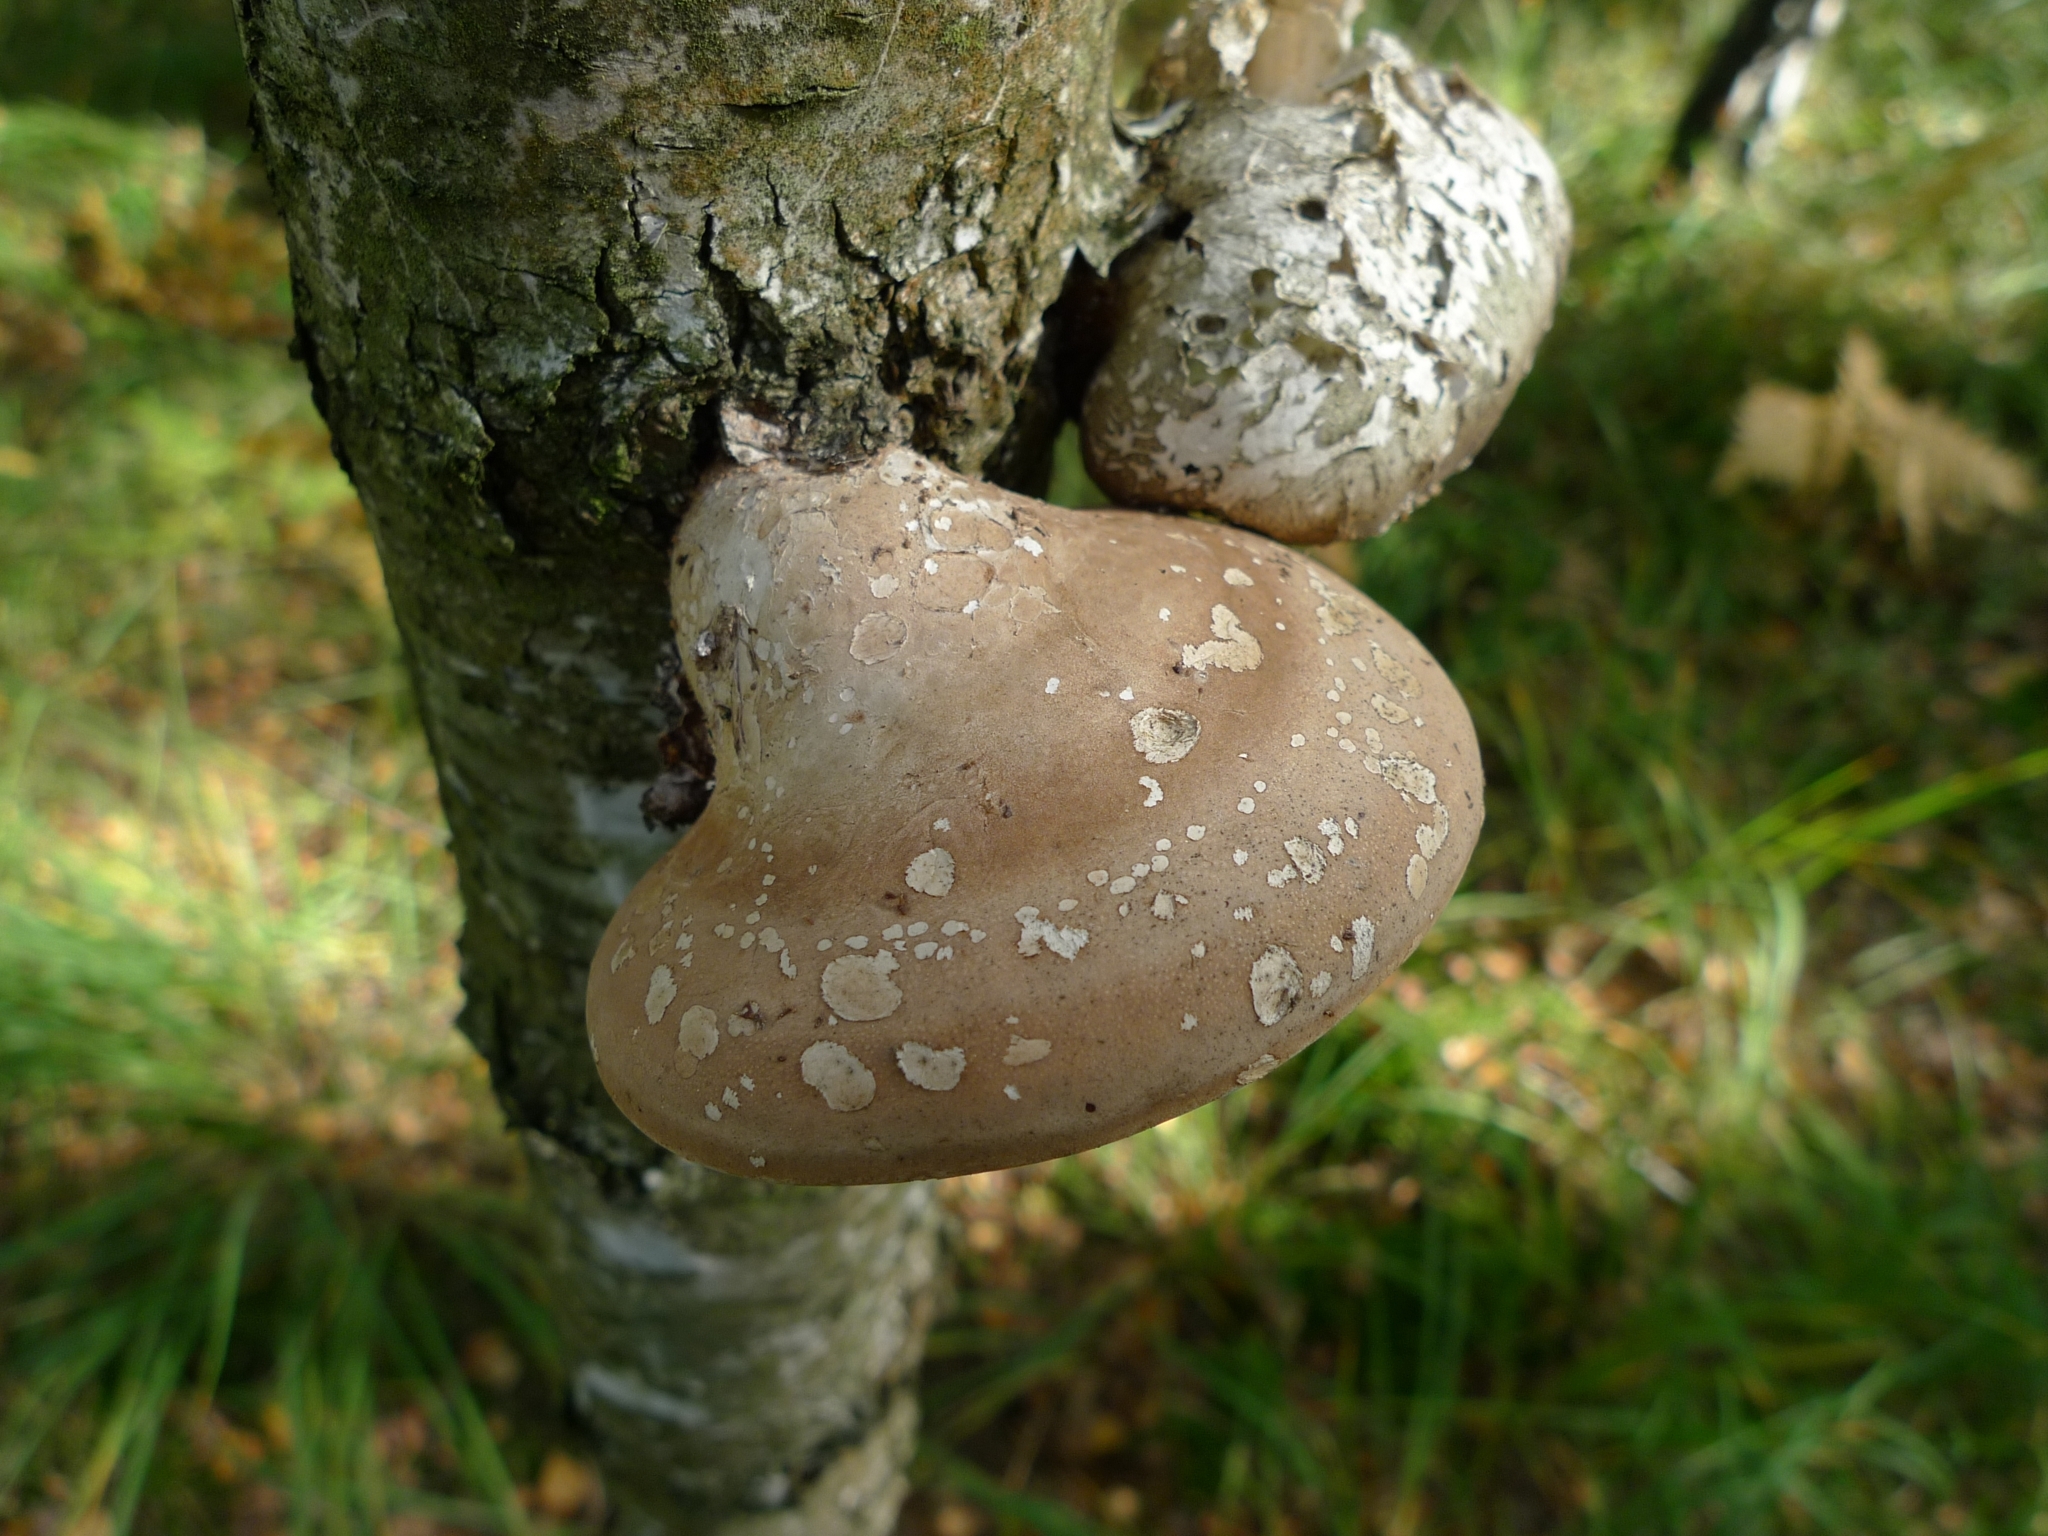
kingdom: Fungi
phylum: Basidiomycota
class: Agaricomycetes
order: Polyporales
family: Fomitopsidaceae
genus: Fomitopsis
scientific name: Fomitopsis betulina
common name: Birch polypore
